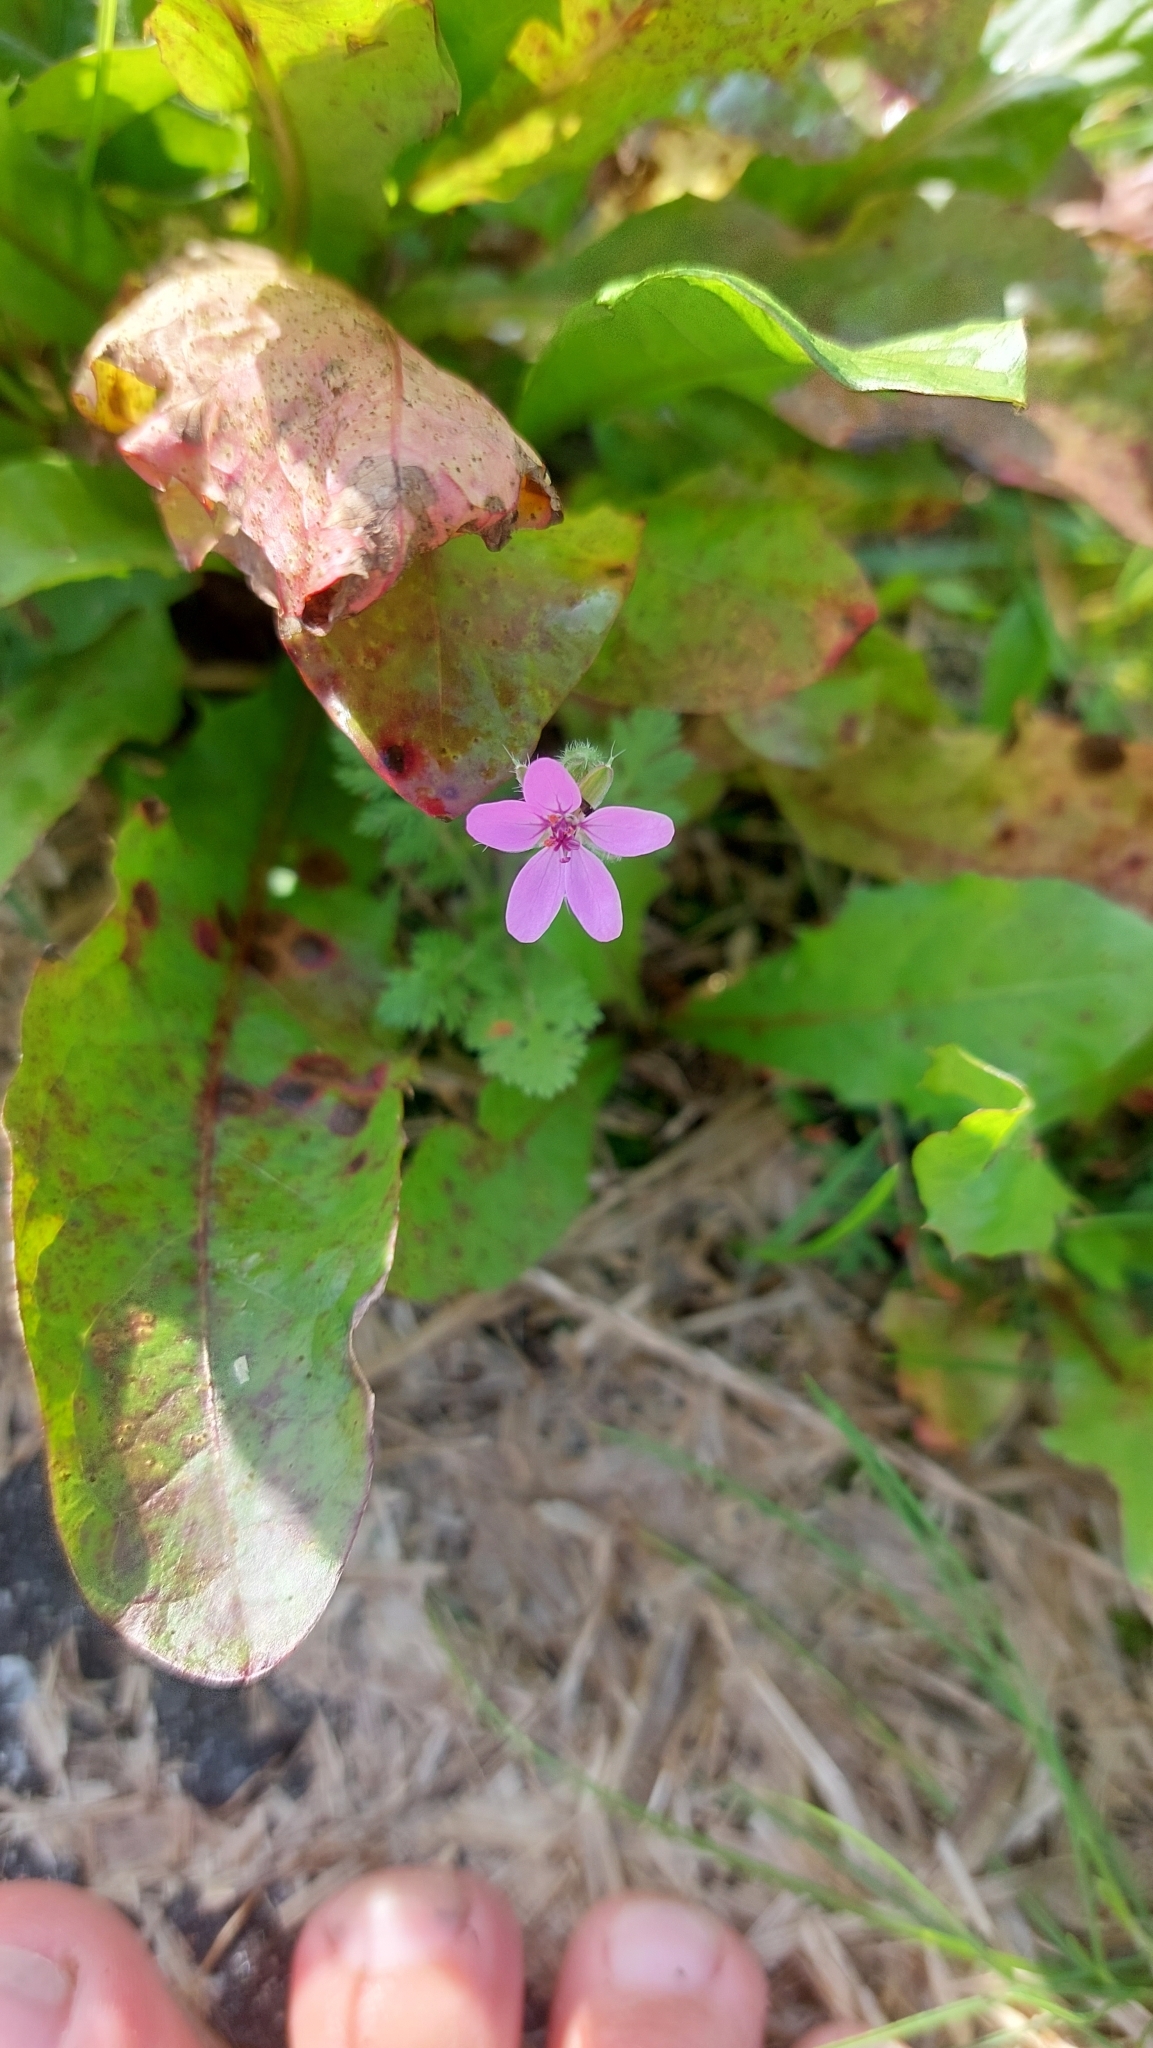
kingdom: Plantae
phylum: Tracheophyta
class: Magnoliopsida
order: Geraniales
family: Geraniaceae
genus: Erodium
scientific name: Erodium cicutarium
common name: Common stork's-bill
